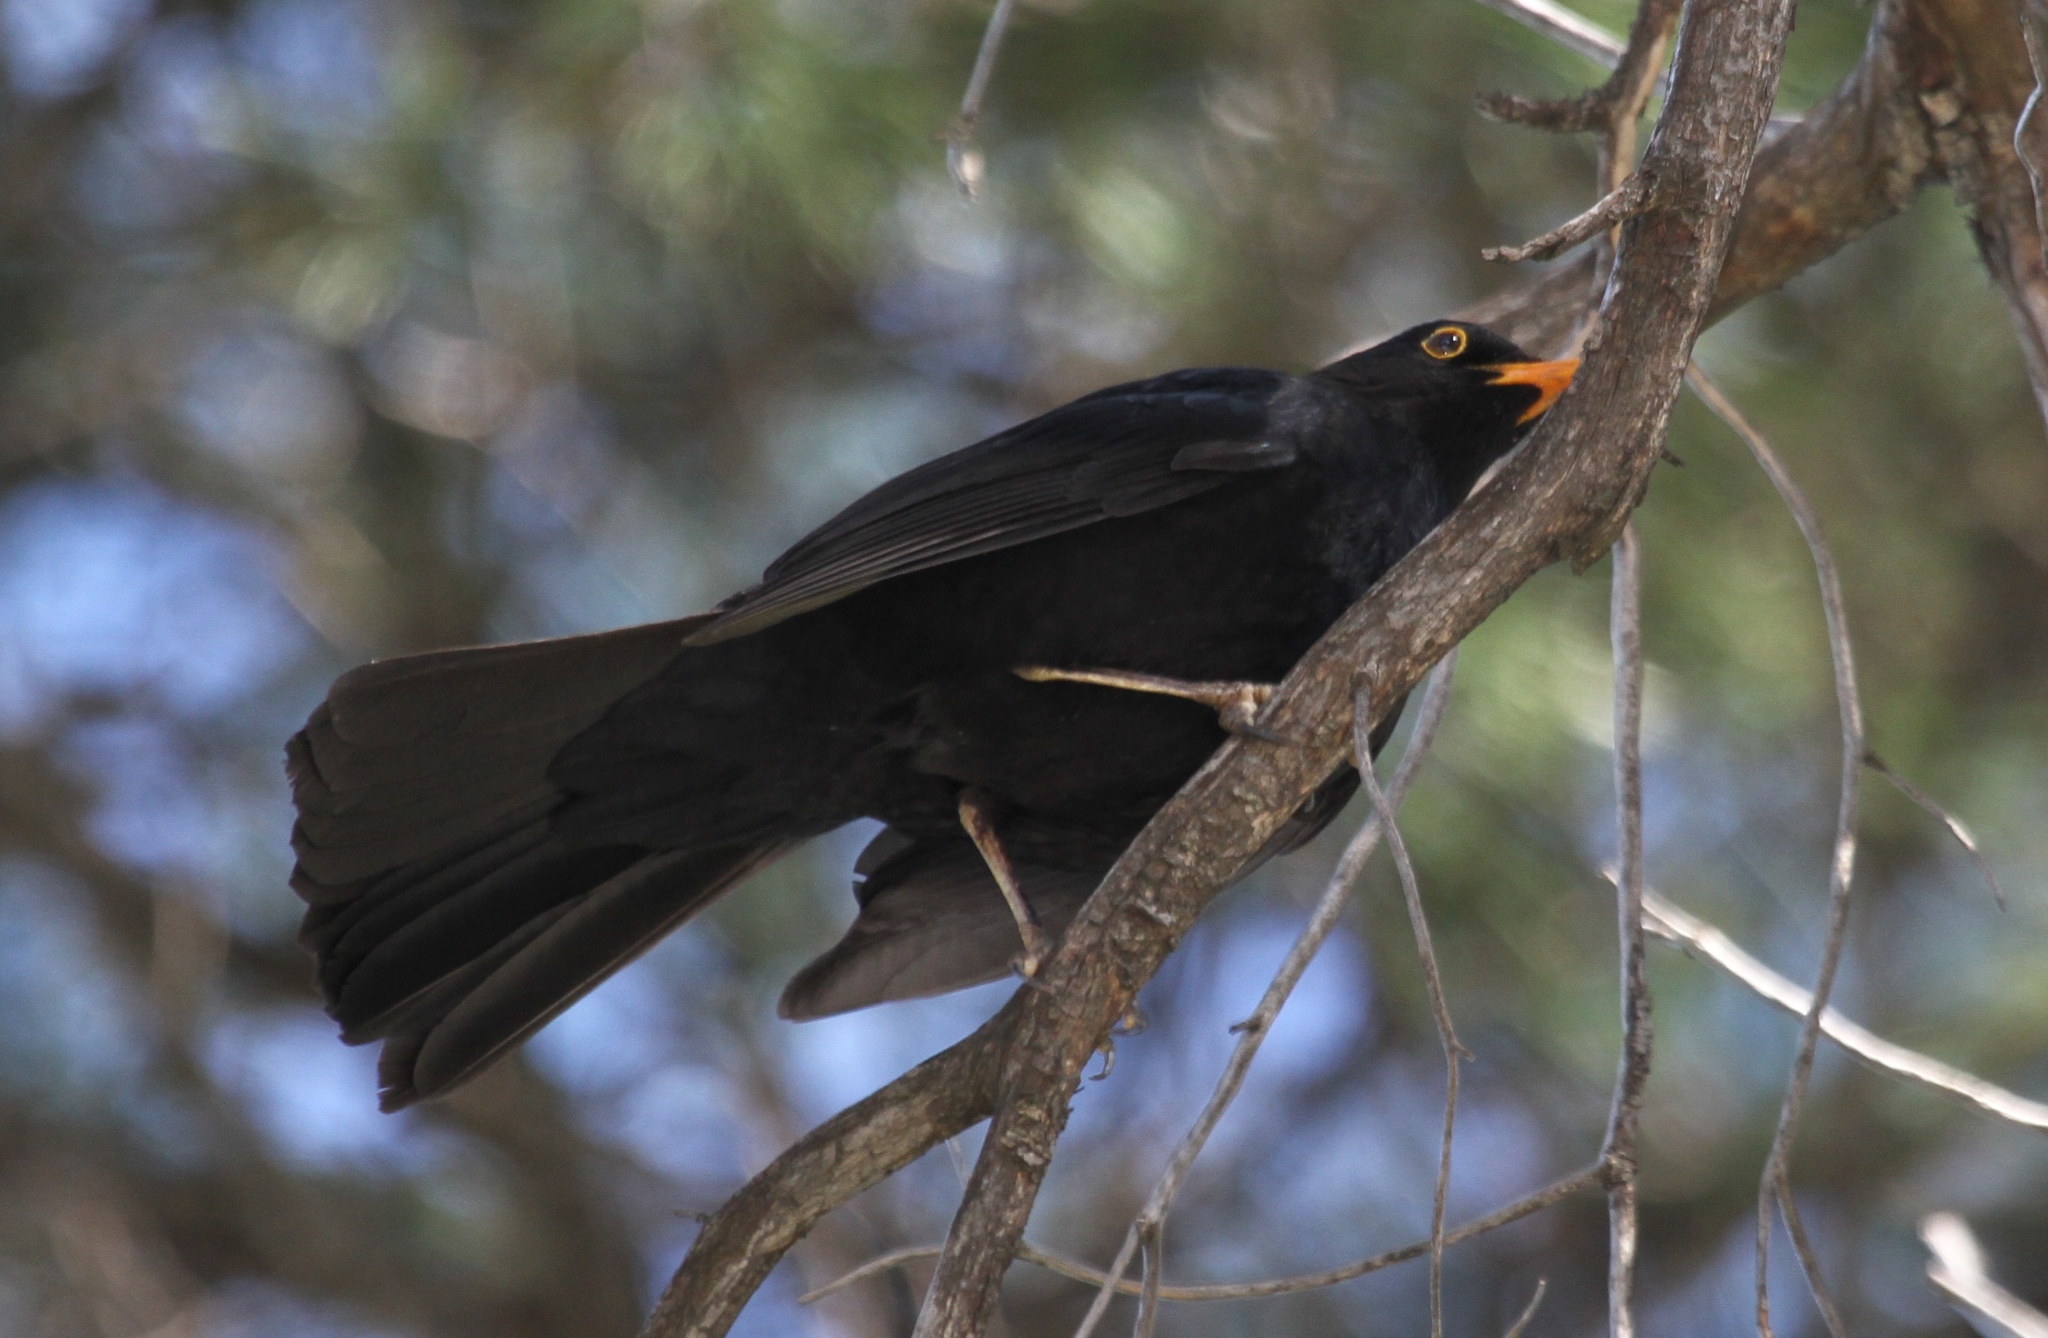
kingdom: Animalia
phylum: Chordata
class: Aves
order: Passeriformes
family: Turdidae
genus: Turdus
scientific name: Turdus merula
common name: Common blackbird
